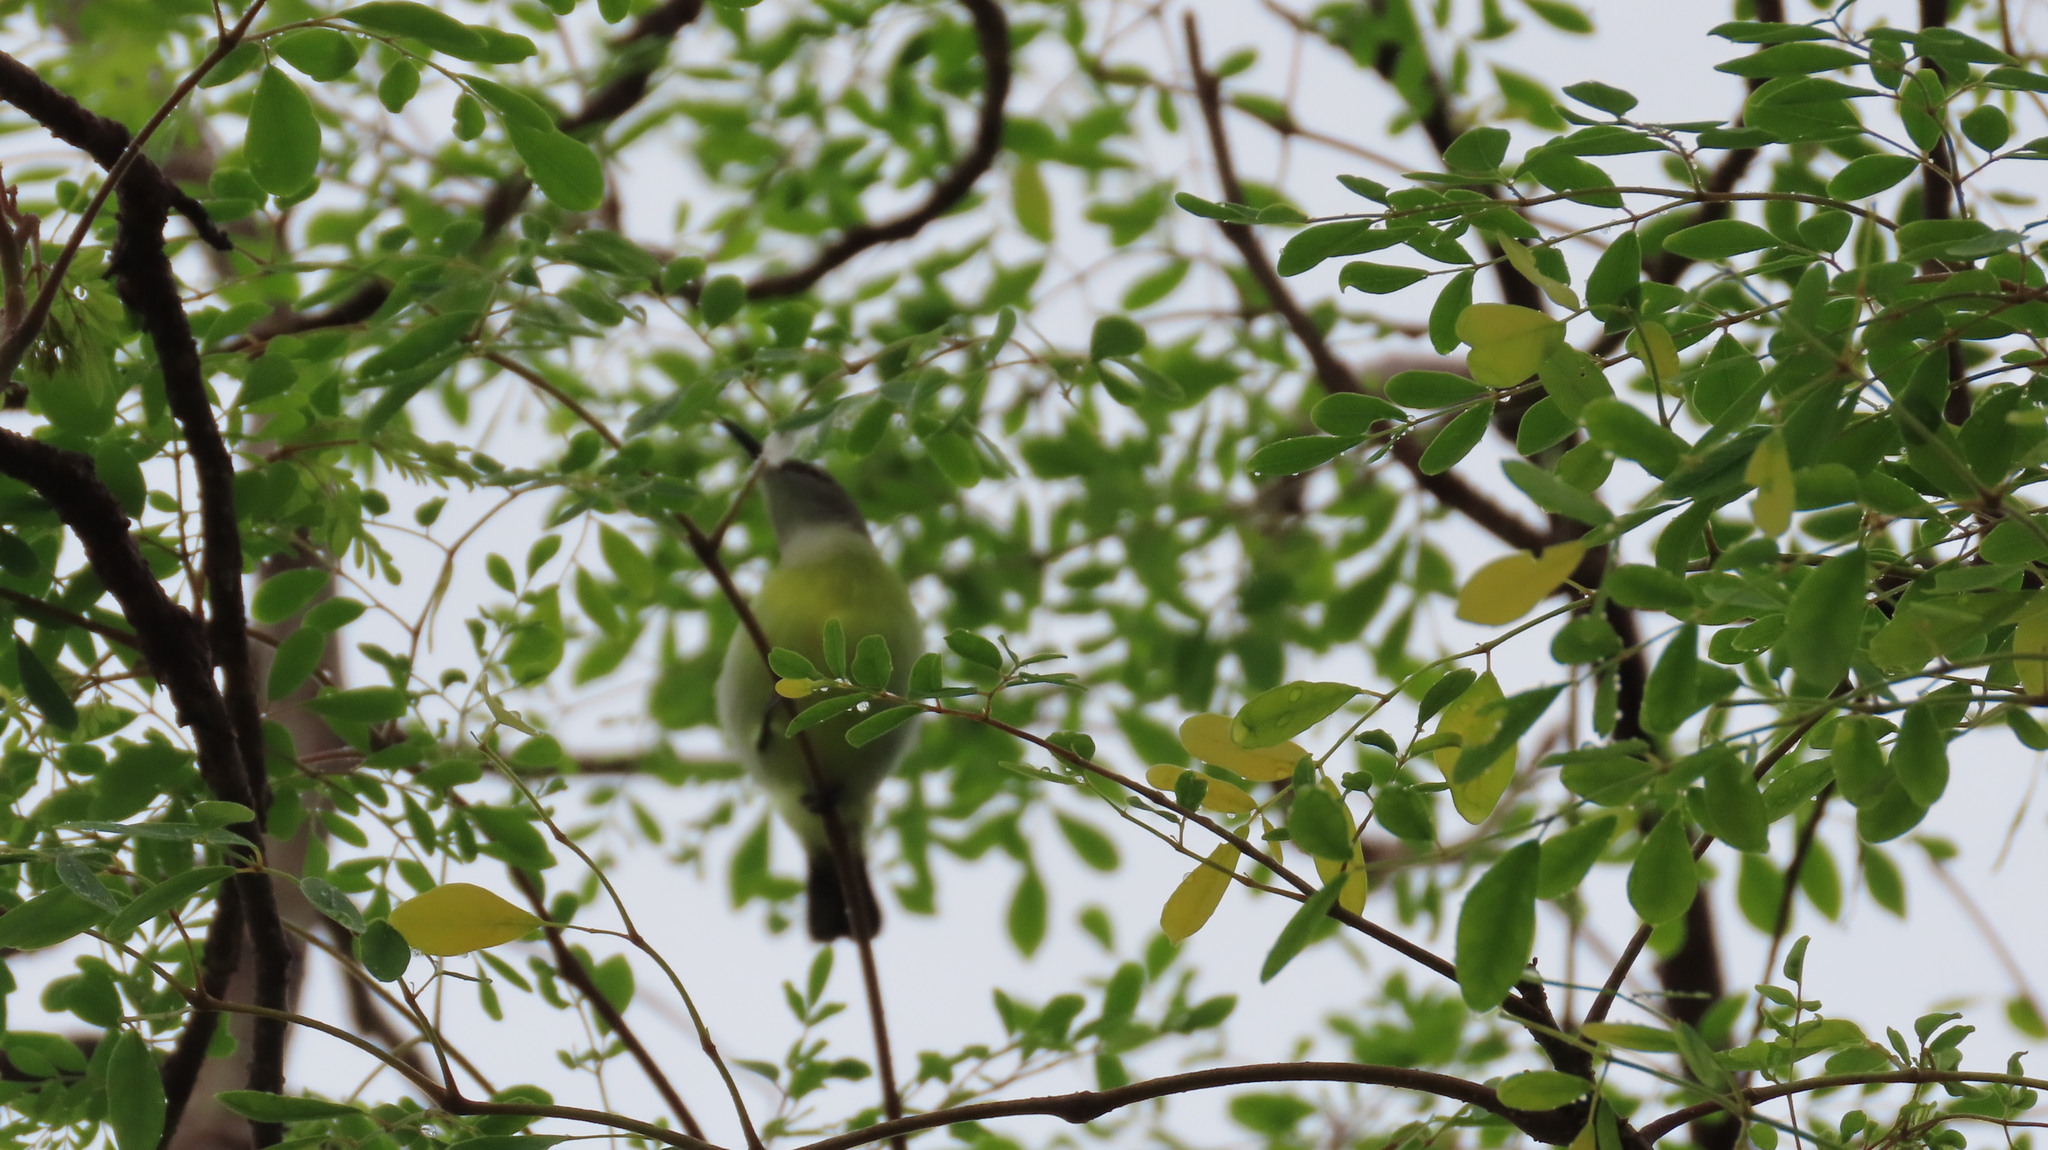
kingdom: Animalia
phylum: Chordata
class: Aves
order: Passeriformes
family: Nectariniidae
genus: Leptocoma
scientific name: Leptocoma zeylonica
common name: Purple-rumped sunbird
